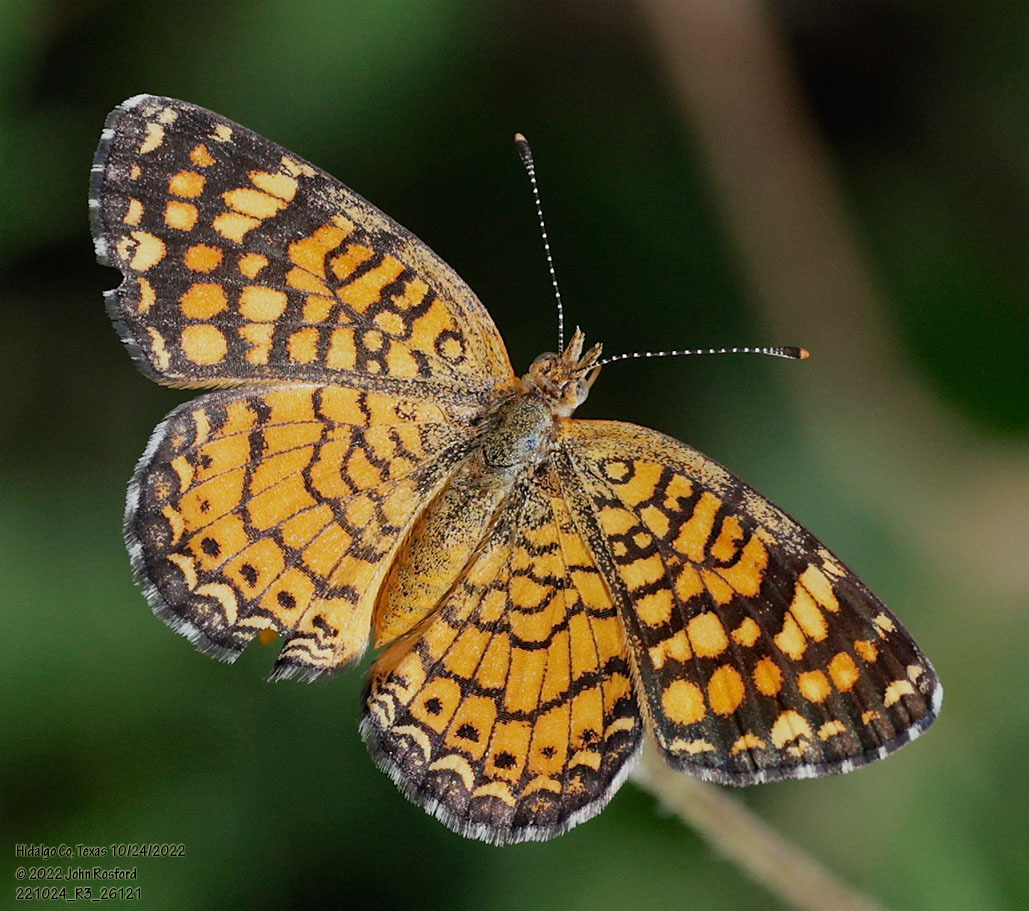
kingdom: Animalia
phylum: Arthropoda
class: Insecta
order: Lepidoptera
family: Nymphalidae
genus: Phyciodes
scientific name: Phyciodes vesta
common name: Vesta crescent
